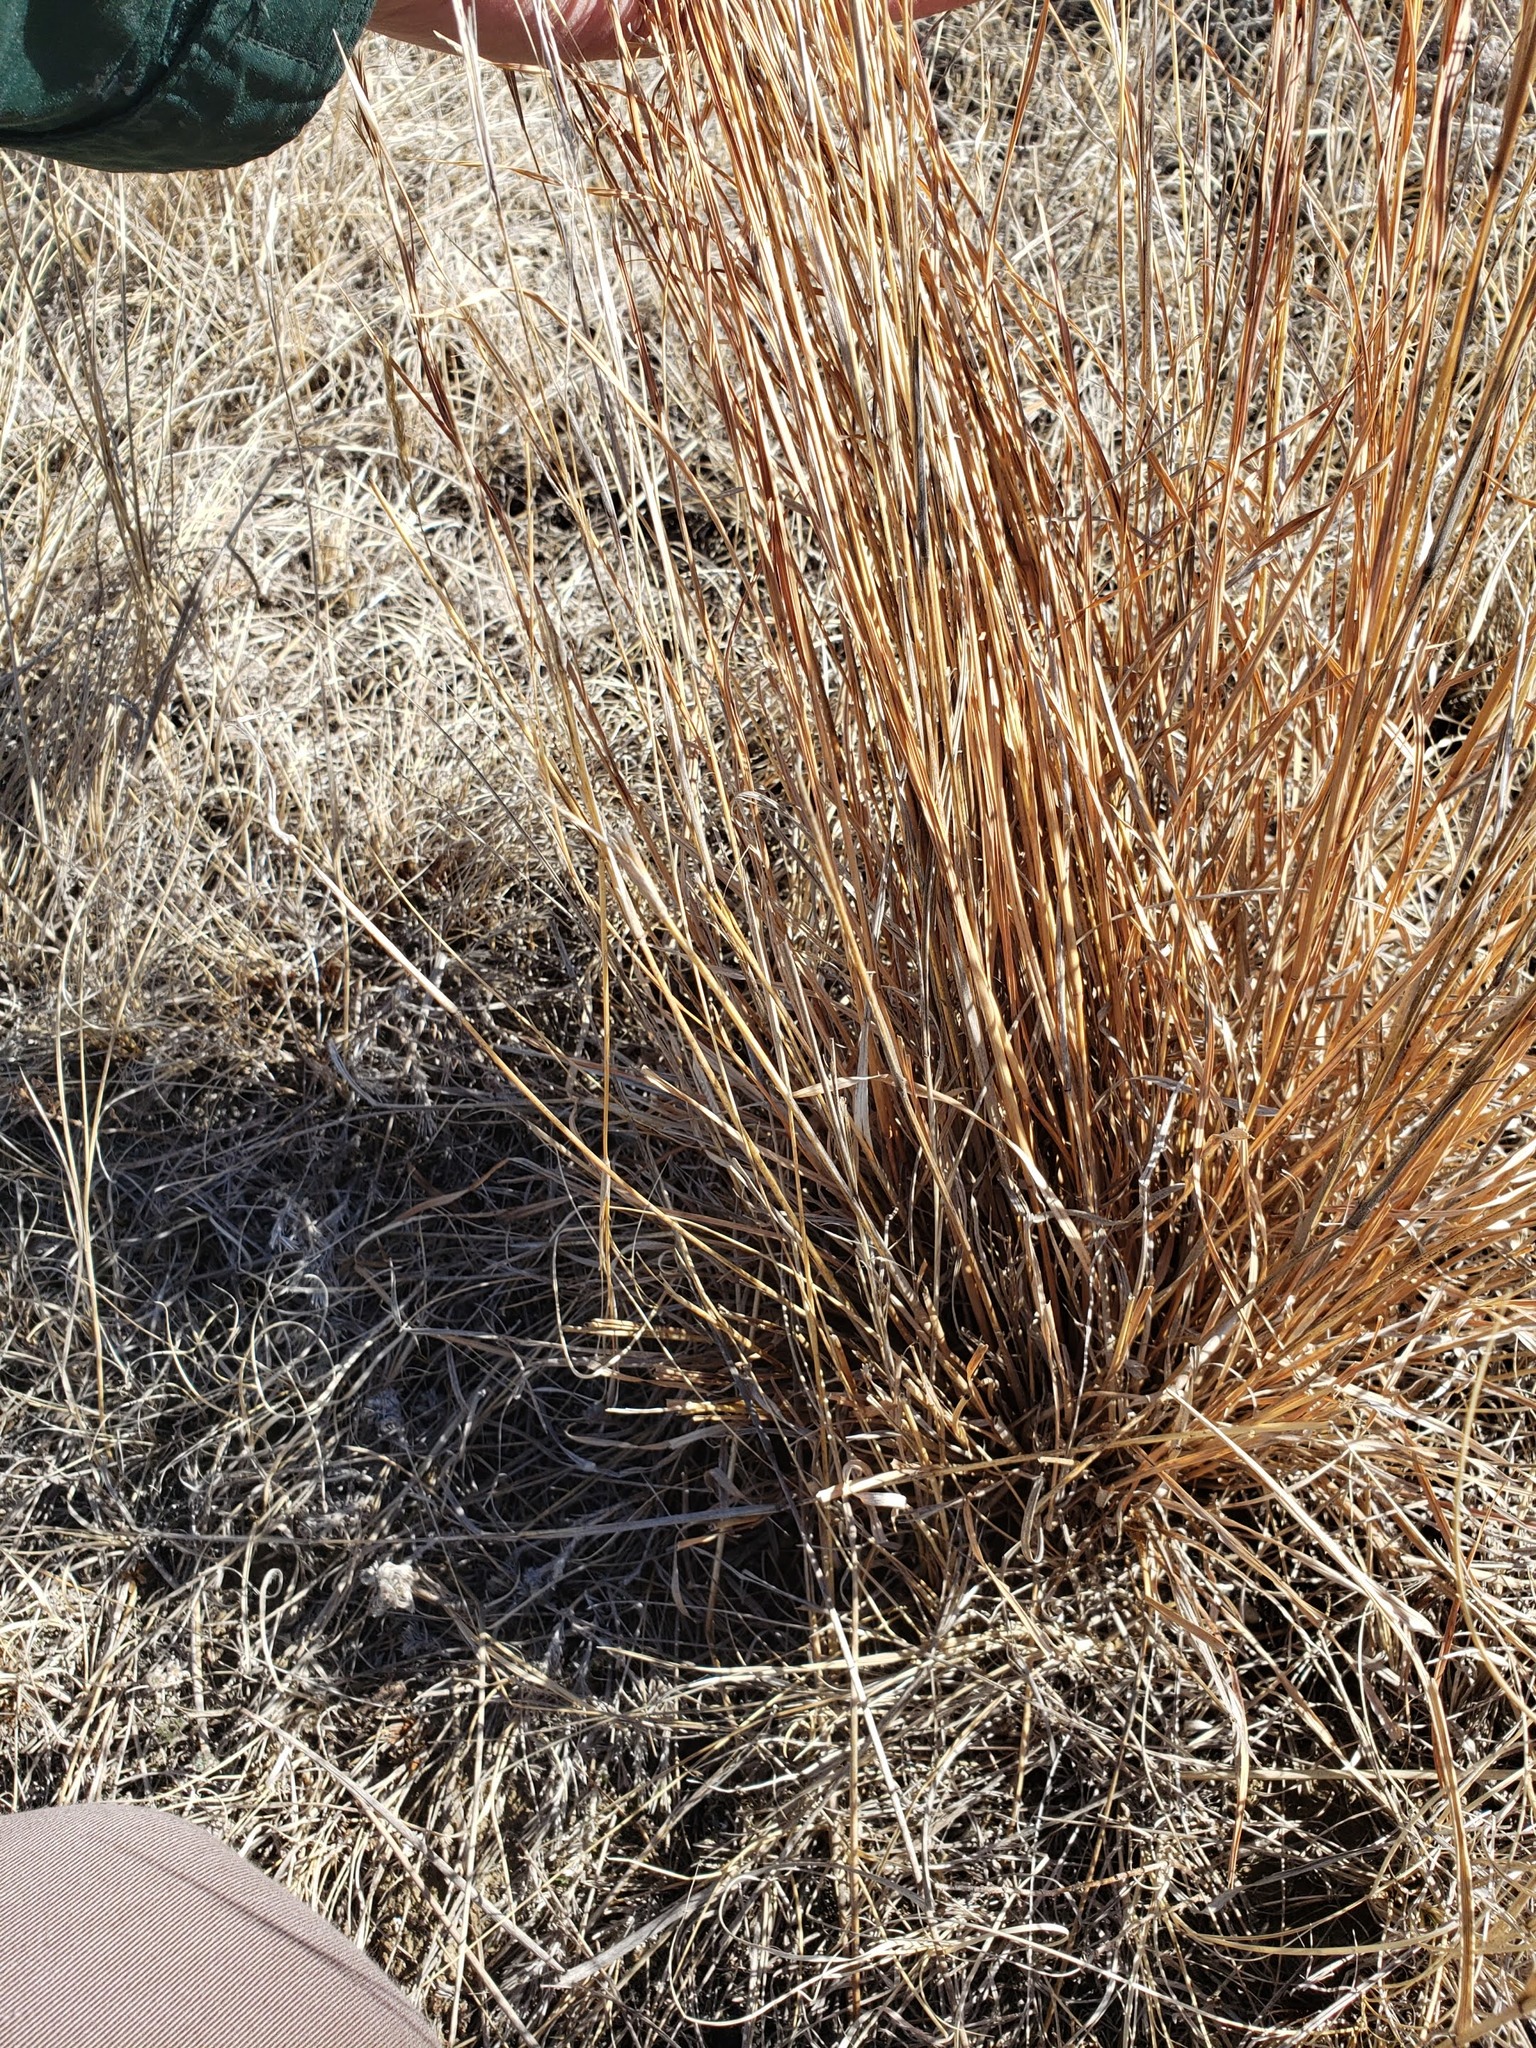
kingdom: Plantae
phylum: Tracheophyta
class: Liliopsida
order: Poales
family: Poaceae
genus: Schizachyrium
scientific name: Schizachyrium scoparium
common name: Little bluestem
